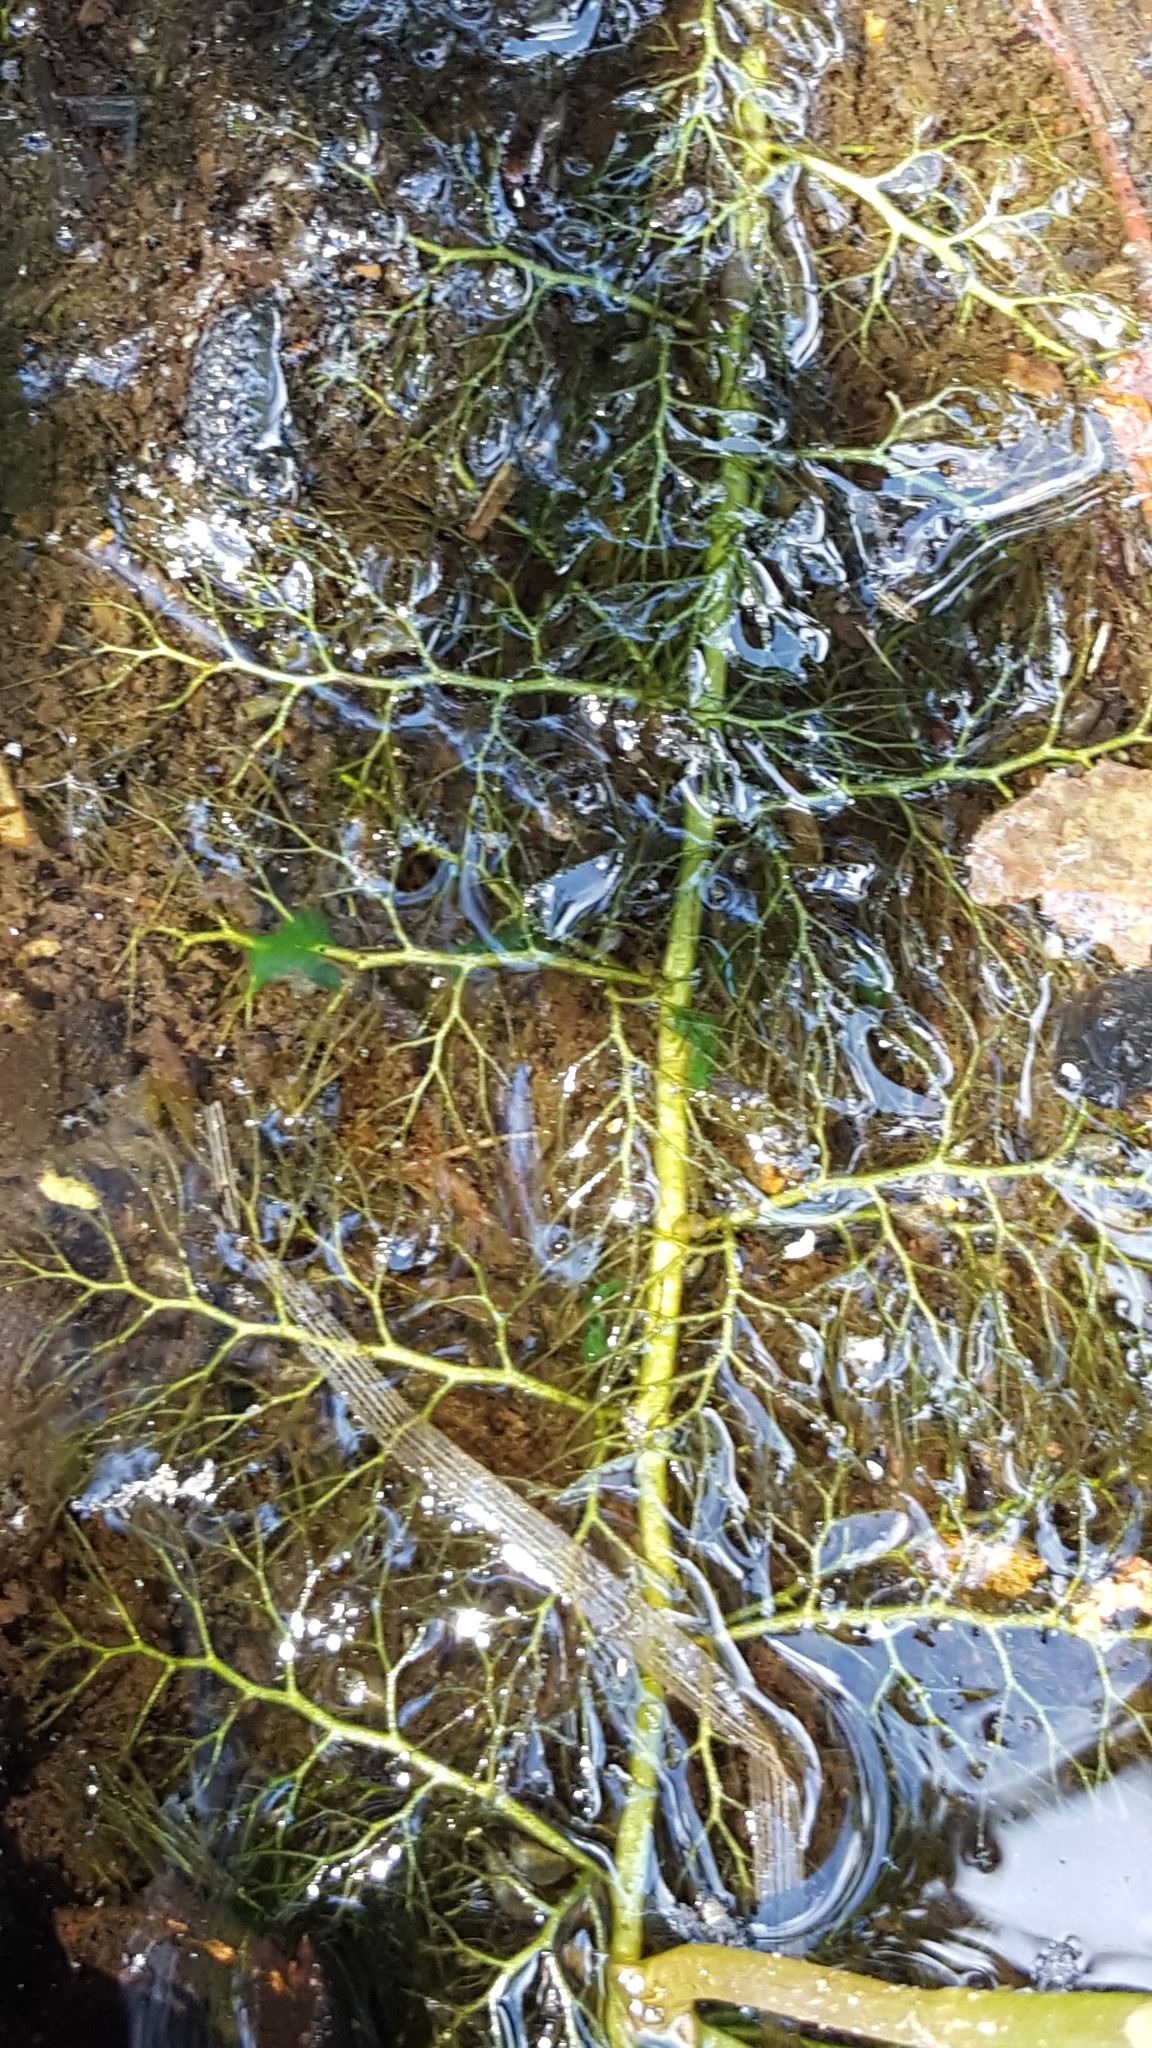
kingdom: Plantae
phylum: Tracheophyta
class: Magnoliopsida
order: Lamiales
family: Lentibulariaceae
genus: Utricularia
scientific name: Utricularia macrorhiza
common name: Common bladderwort
